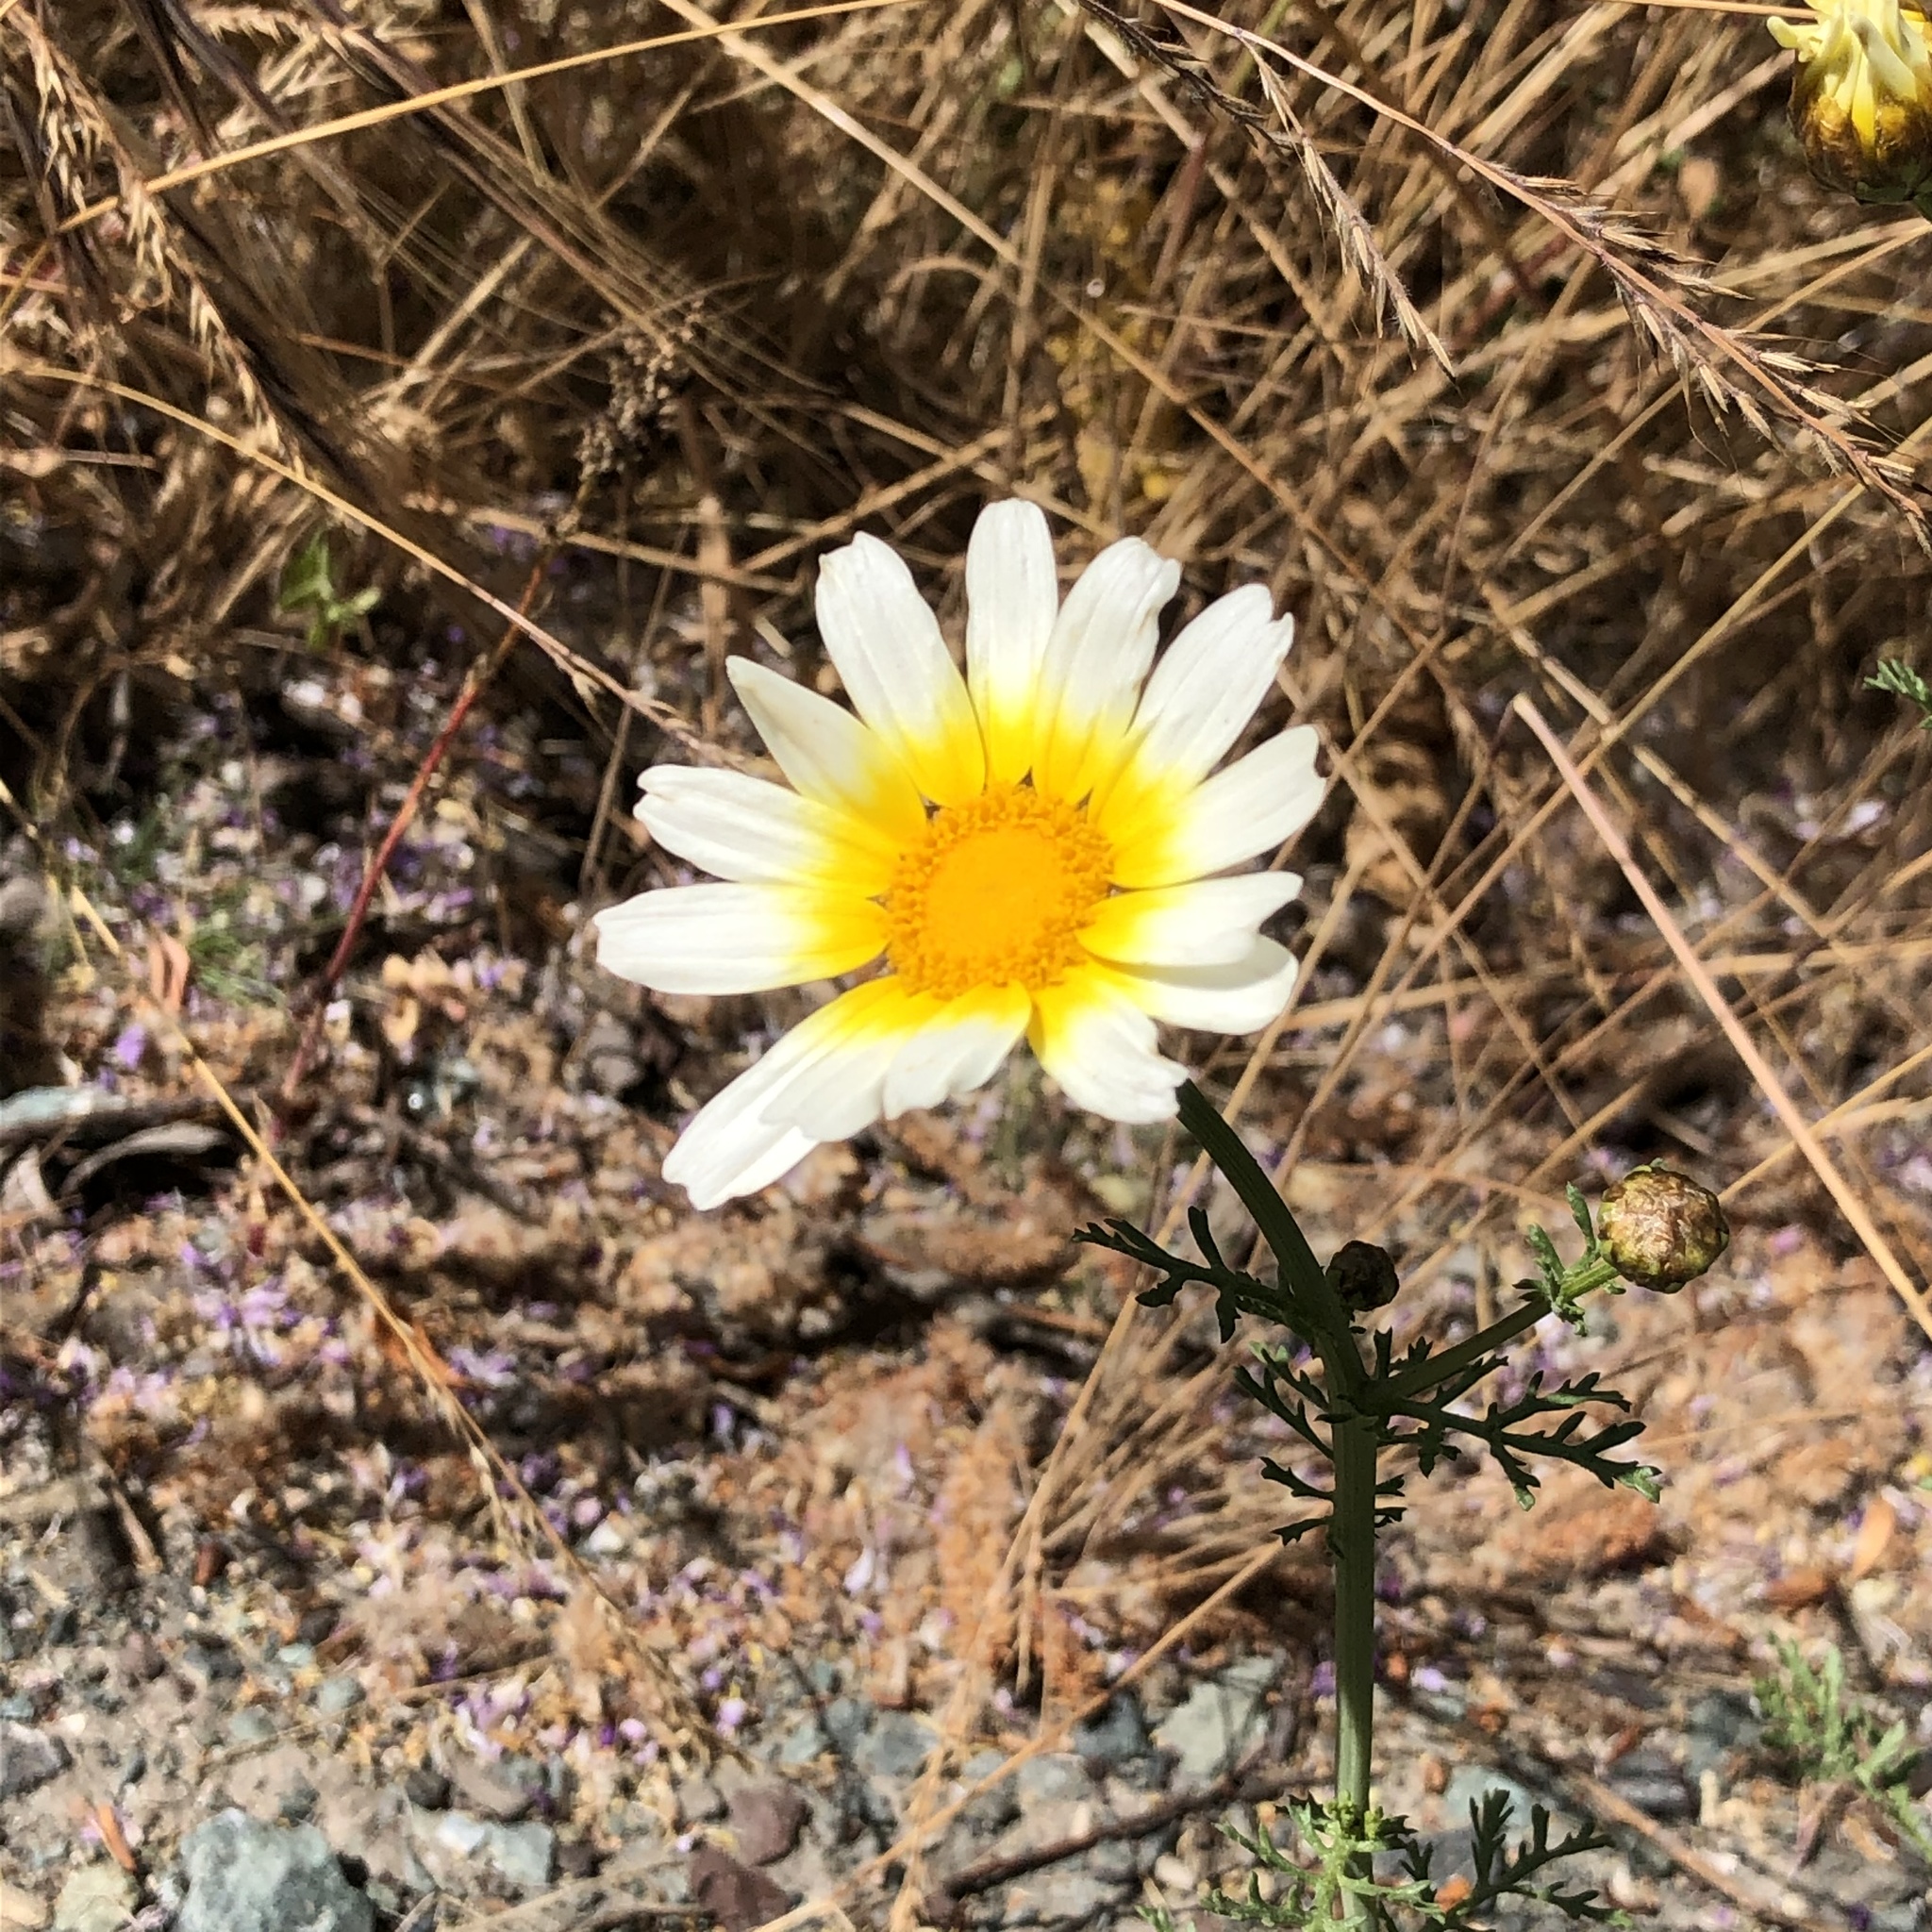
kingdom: Plantae
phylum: Tracheophyta
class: Magnoliopsida
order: Asterales
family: Asteraceae
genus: Glebionis
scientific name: Glebionis coronaria
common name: Crowndaisy
